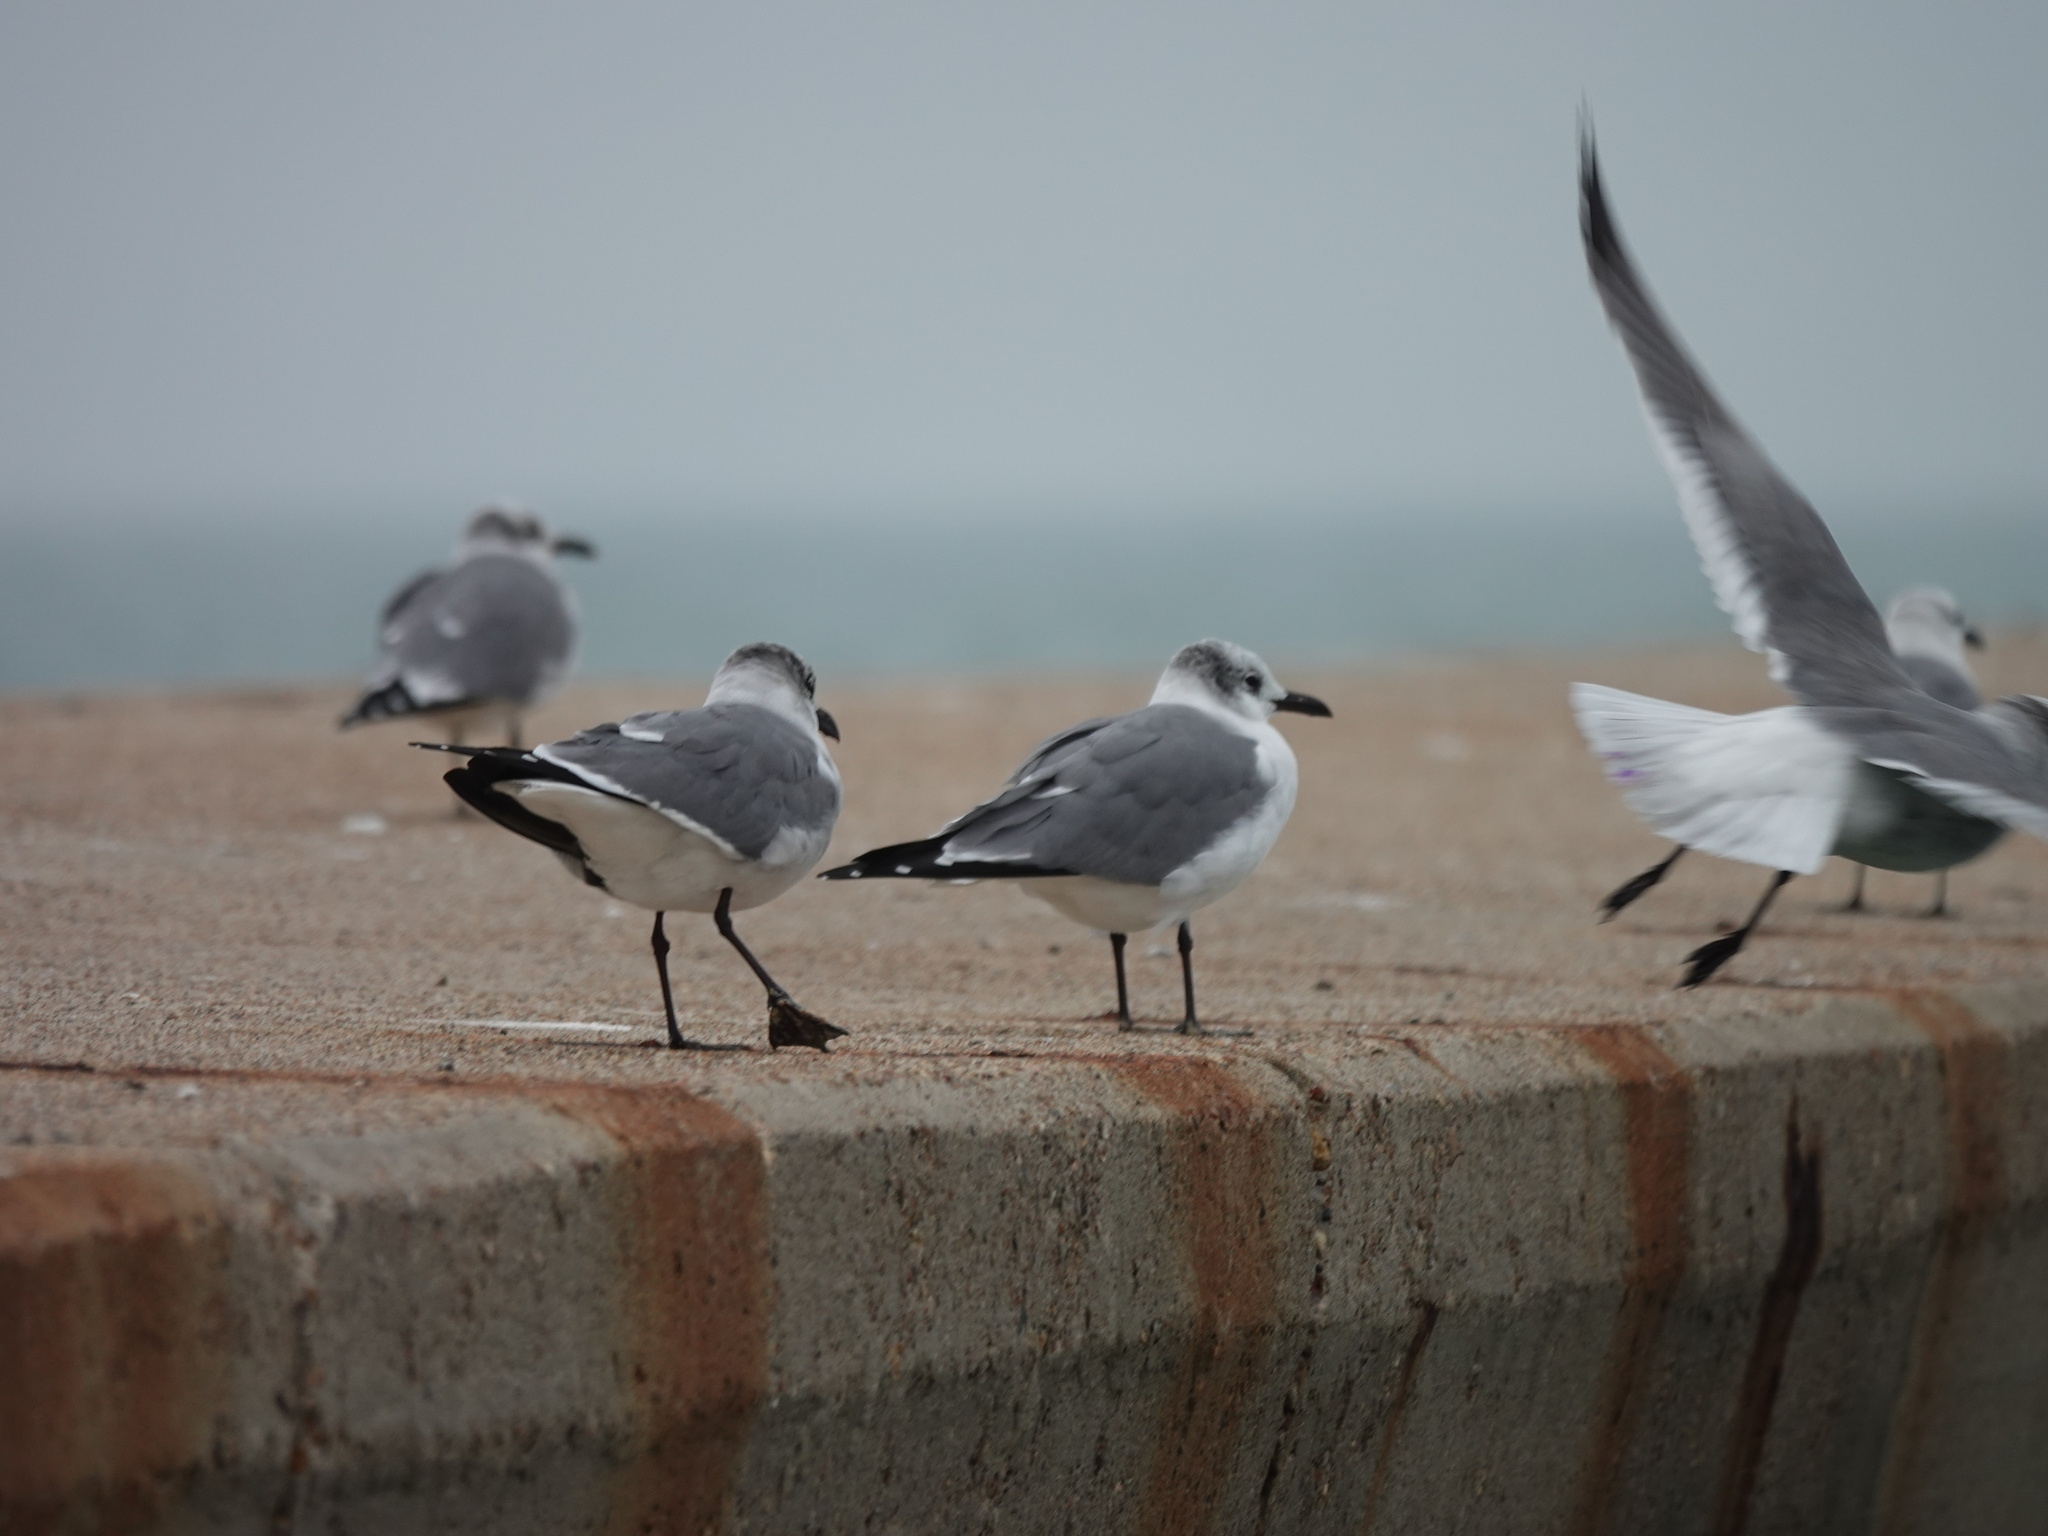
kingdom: Animalia
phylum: Chordata
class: Aves
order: Charadriiformes
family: Laridae
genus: Leucophaeus
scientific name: Leucophaeus atricilla
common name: Laughing gull
